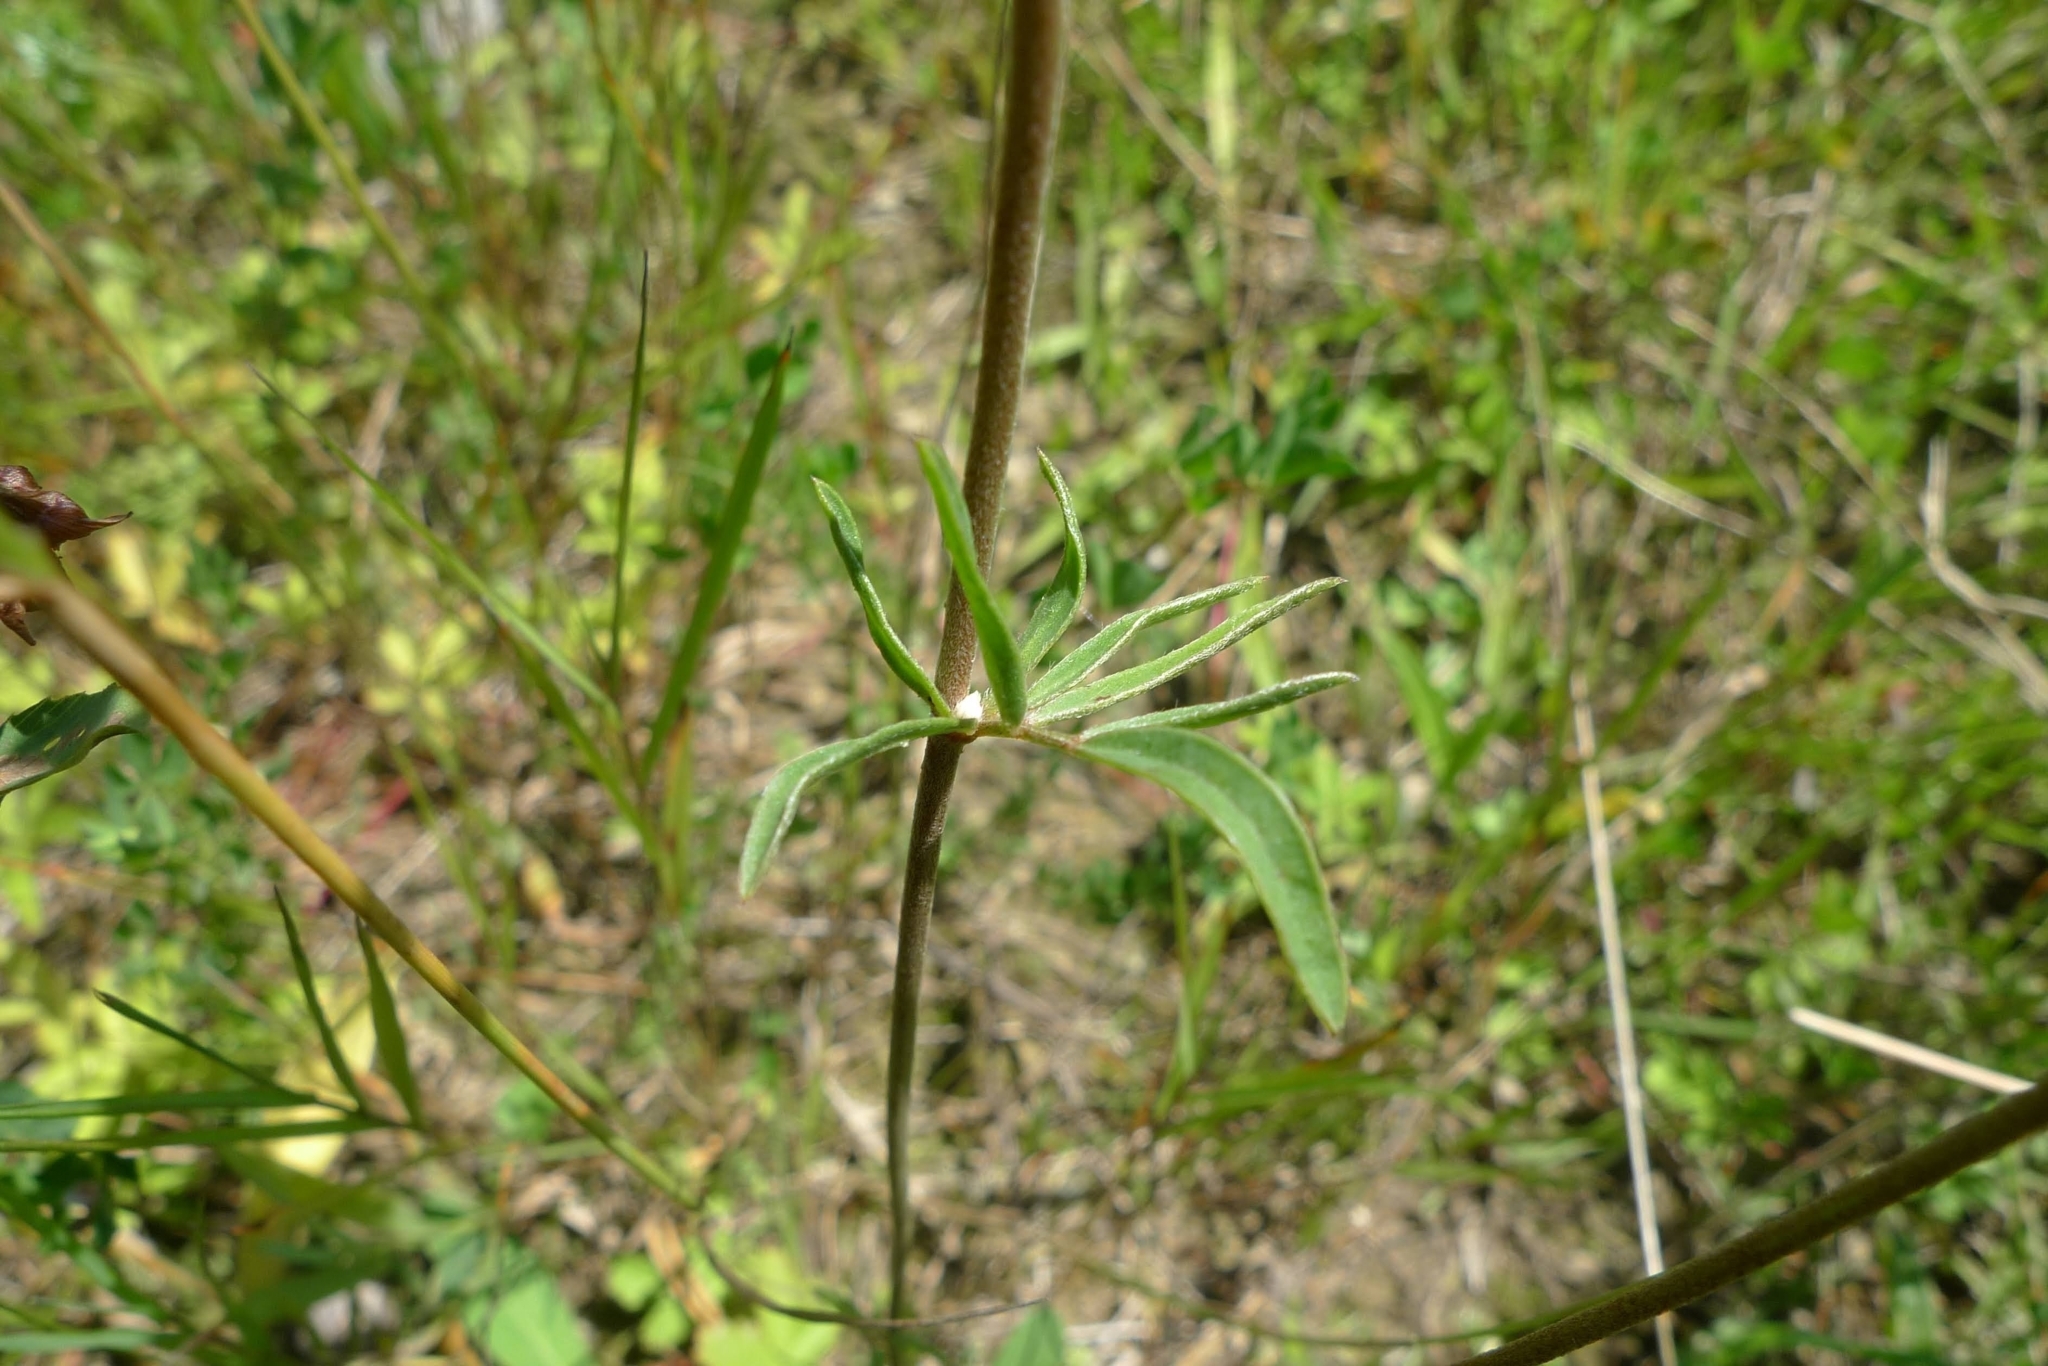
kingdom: Plantae
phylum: Tracheophyta
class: Magnoliopsida
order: Fabales
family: Fabaceae
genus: Anthyllis
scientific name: Anthyllis vulneraria
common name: Kidney vetch
